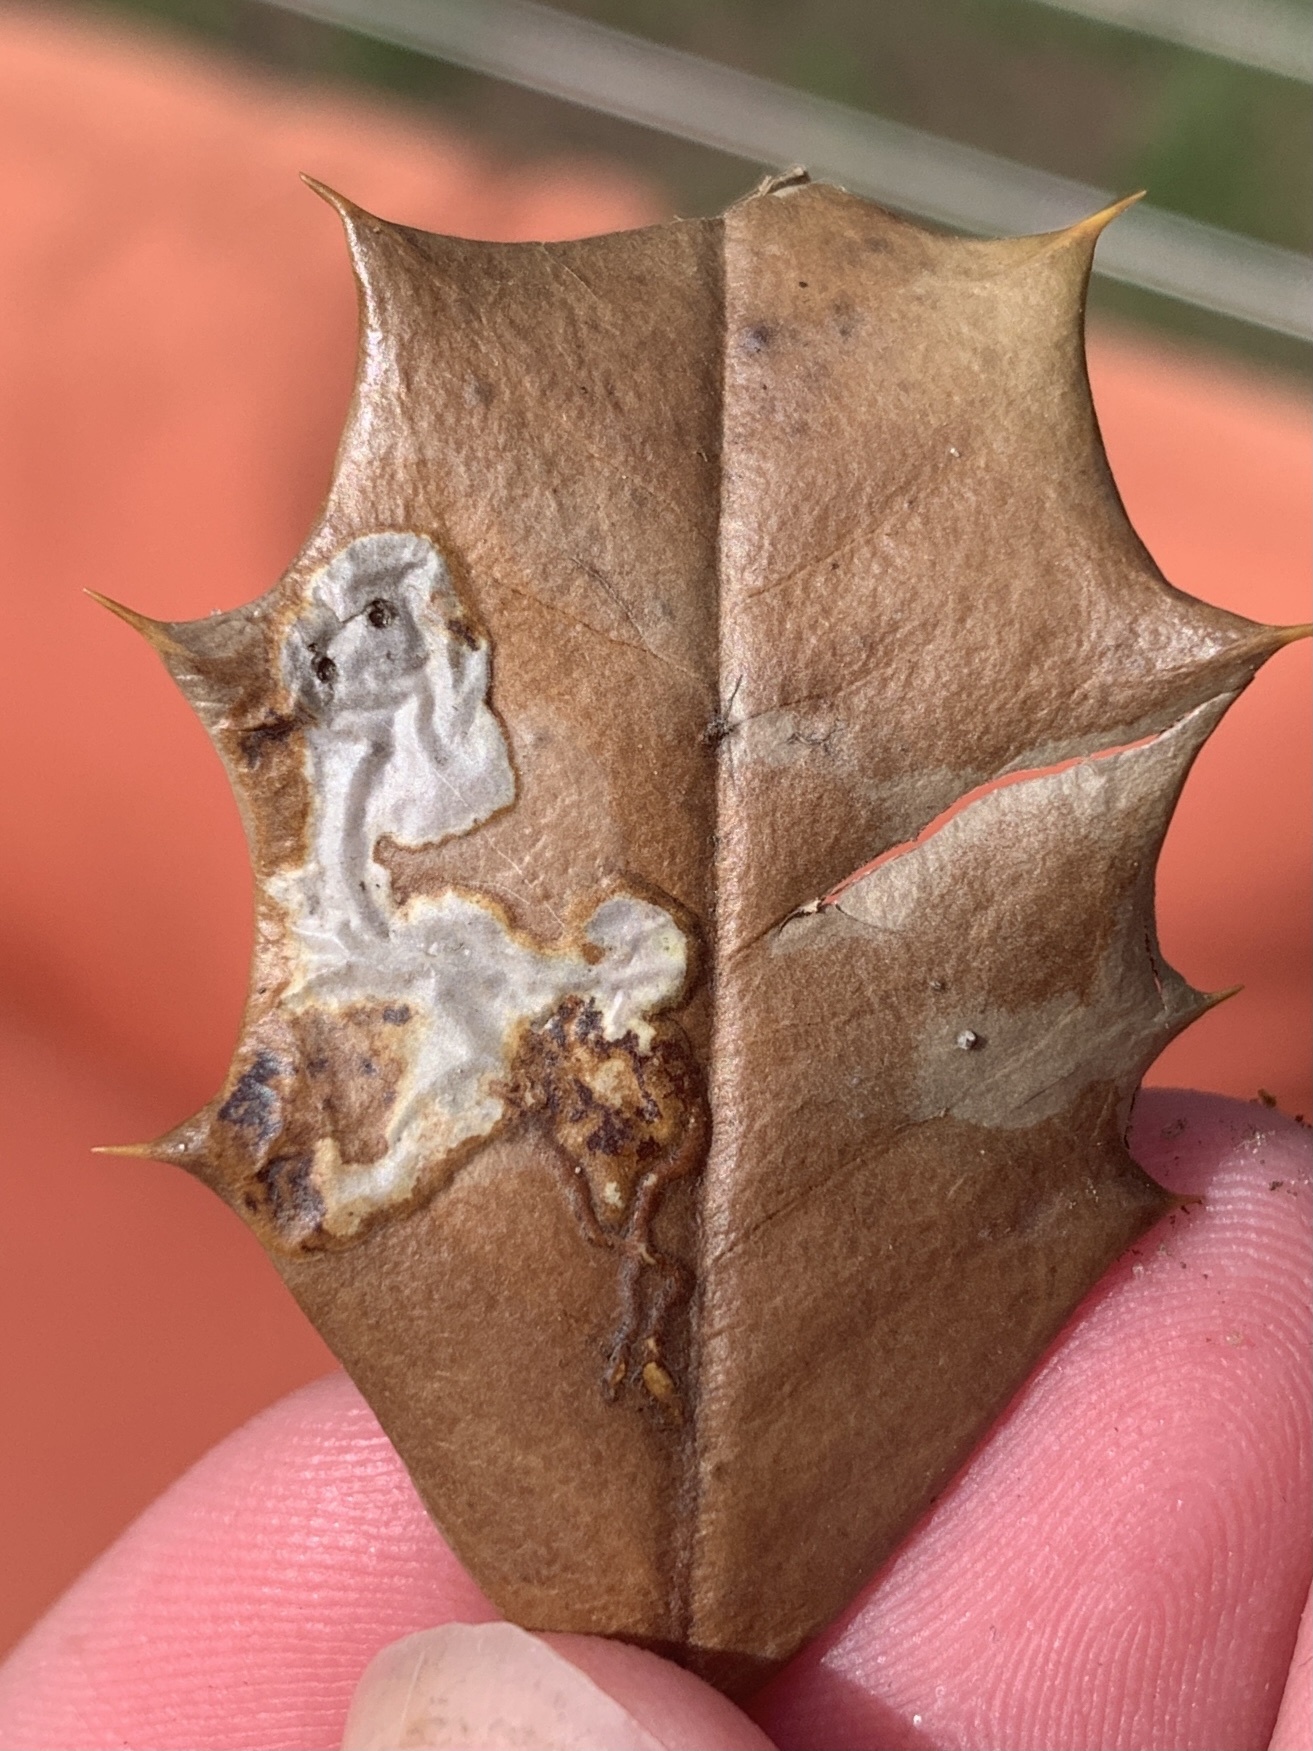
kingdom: Animalia
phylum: Arthropoda
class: Insecta
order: Diptera
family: Agromyzidae
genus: Phytomyza
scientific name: Phytomyza ilicicola
